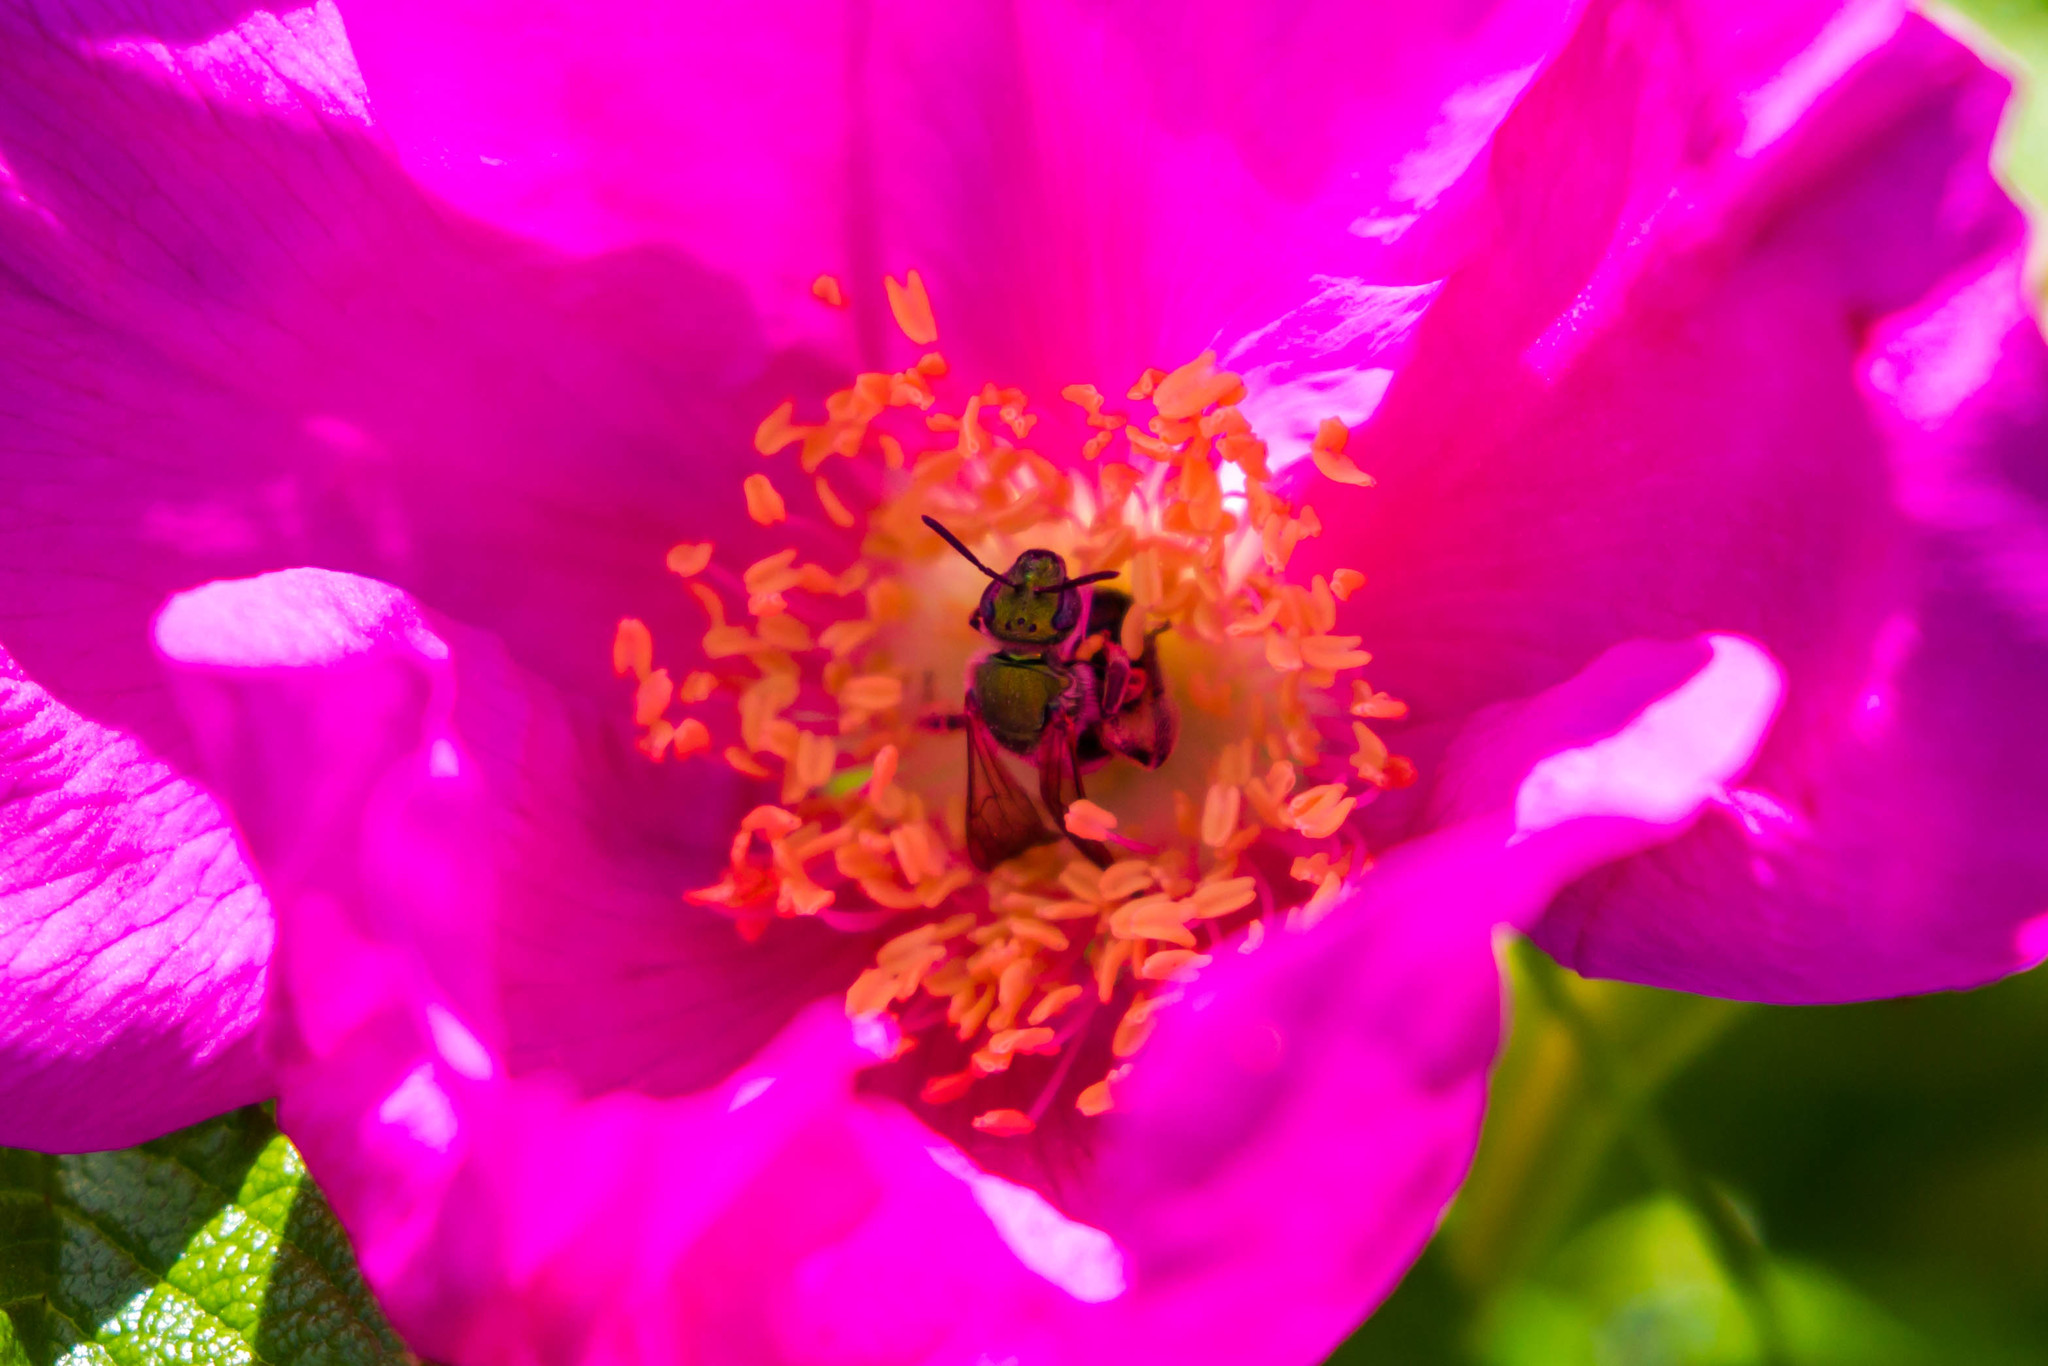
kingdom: Animalia
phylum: Arthropoda
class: Insecta
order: Hymenoptera
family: Halictidae
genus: Agapostemon
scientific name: Agapostemon virescens
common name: Bicolored striped sweat bee
